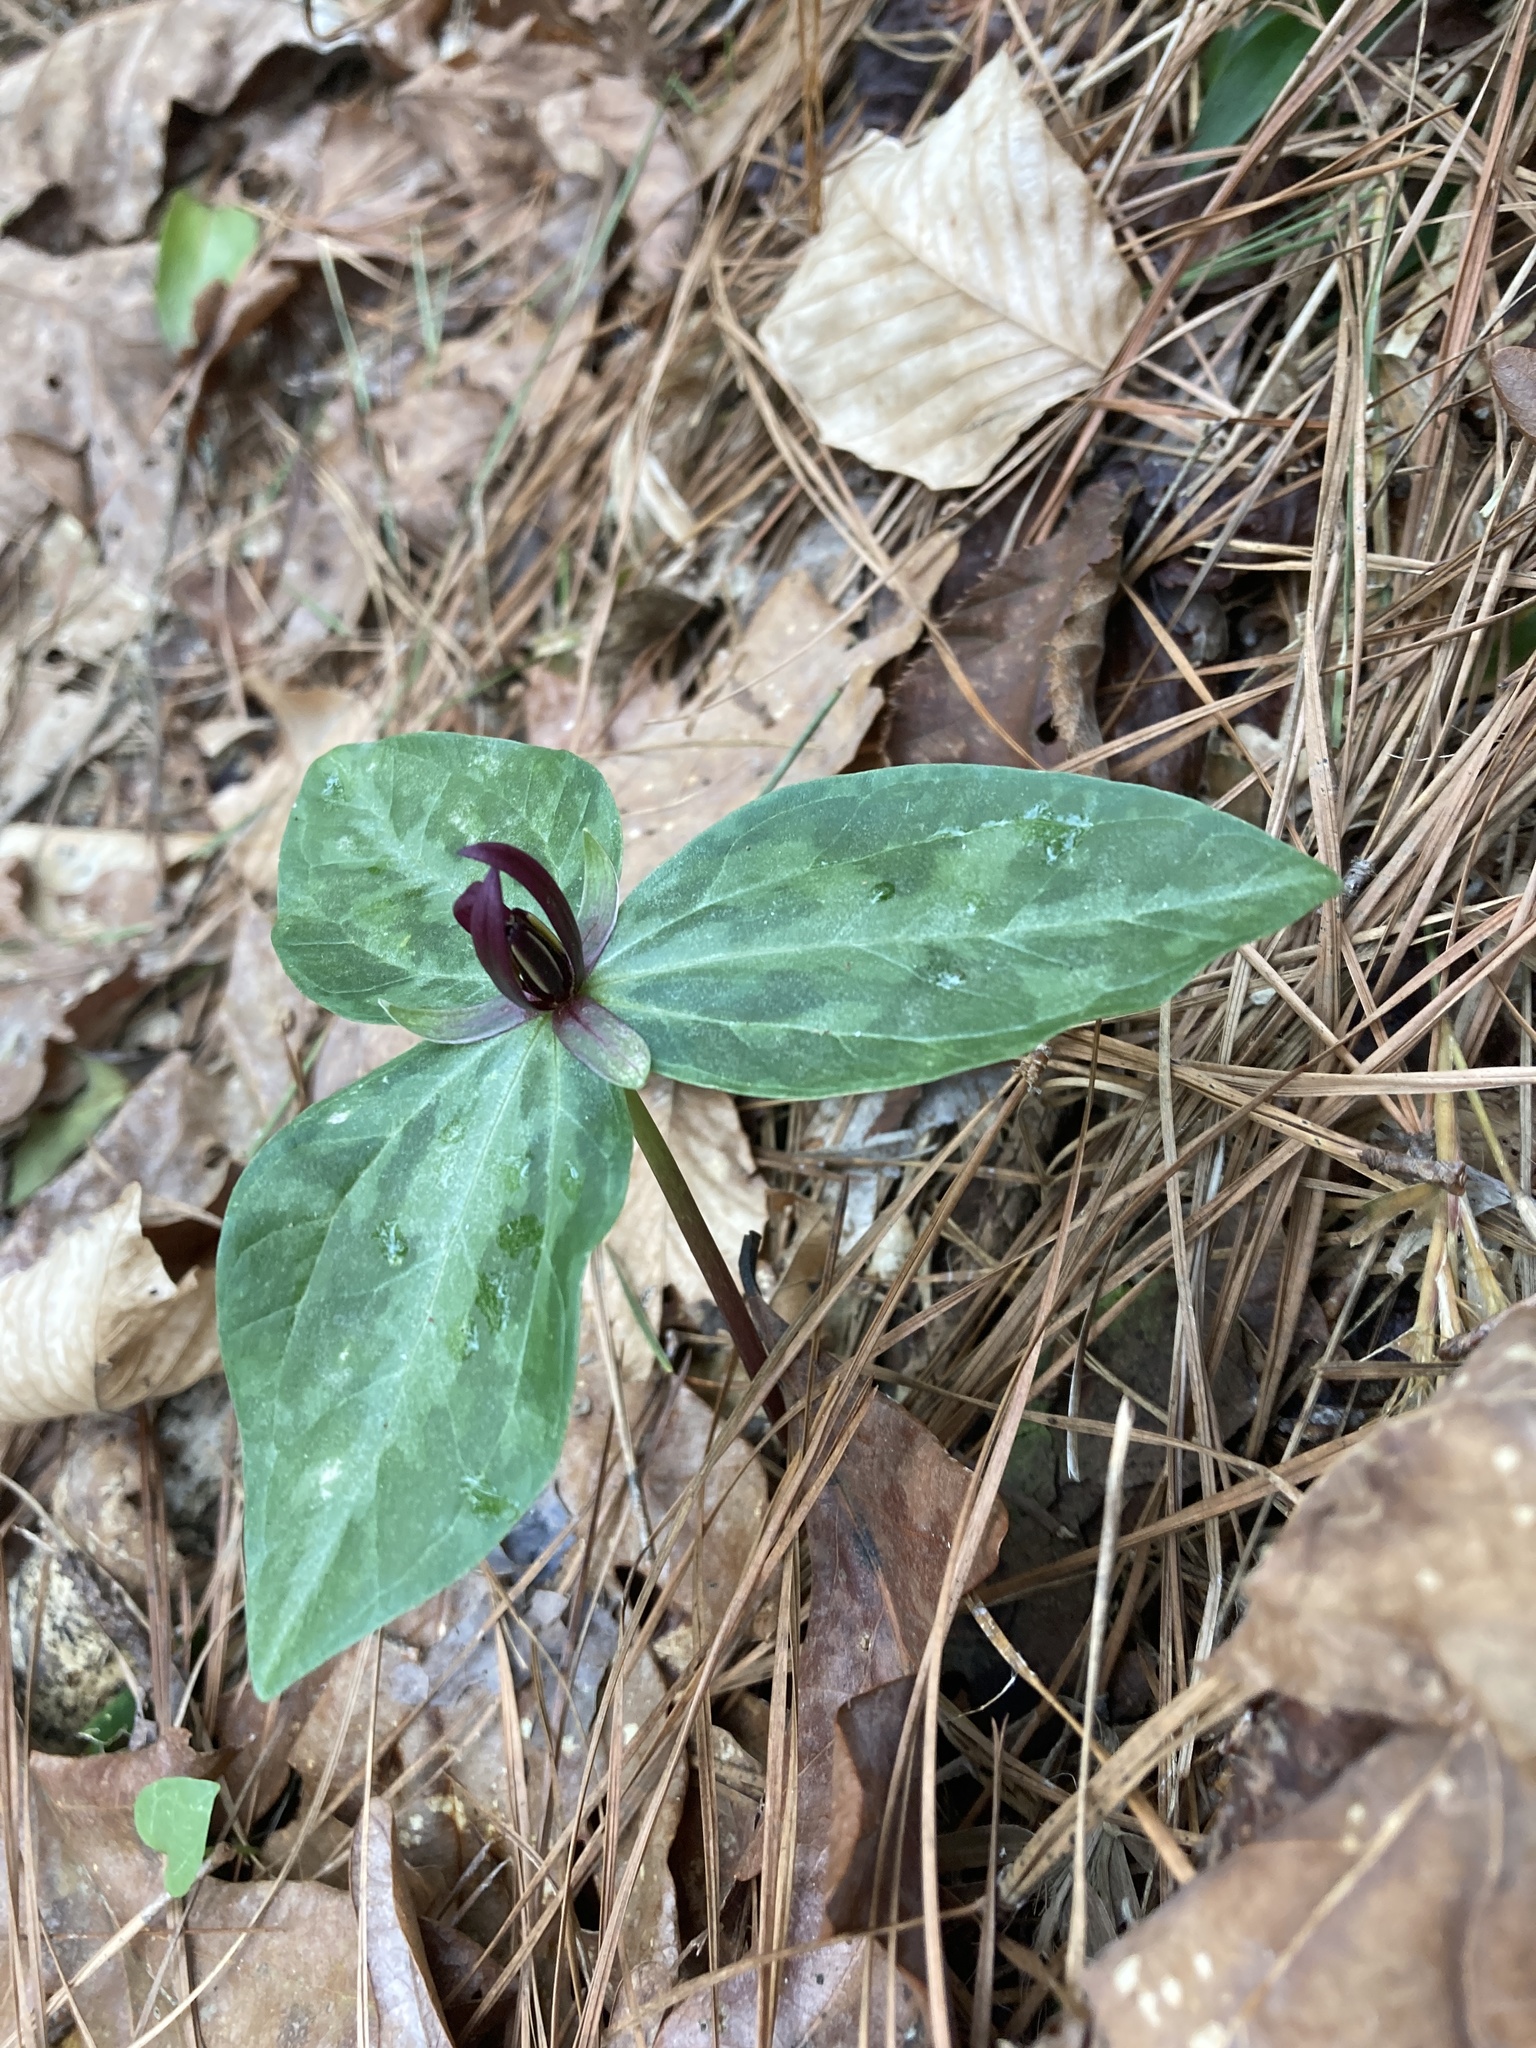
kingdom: Plantae
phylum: Tracheophyta
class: Liliopsida
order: Liliales
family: Melanthiaceae
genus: Trillium
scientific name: Trillium foetidissimum
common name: Mississippi river trillium
